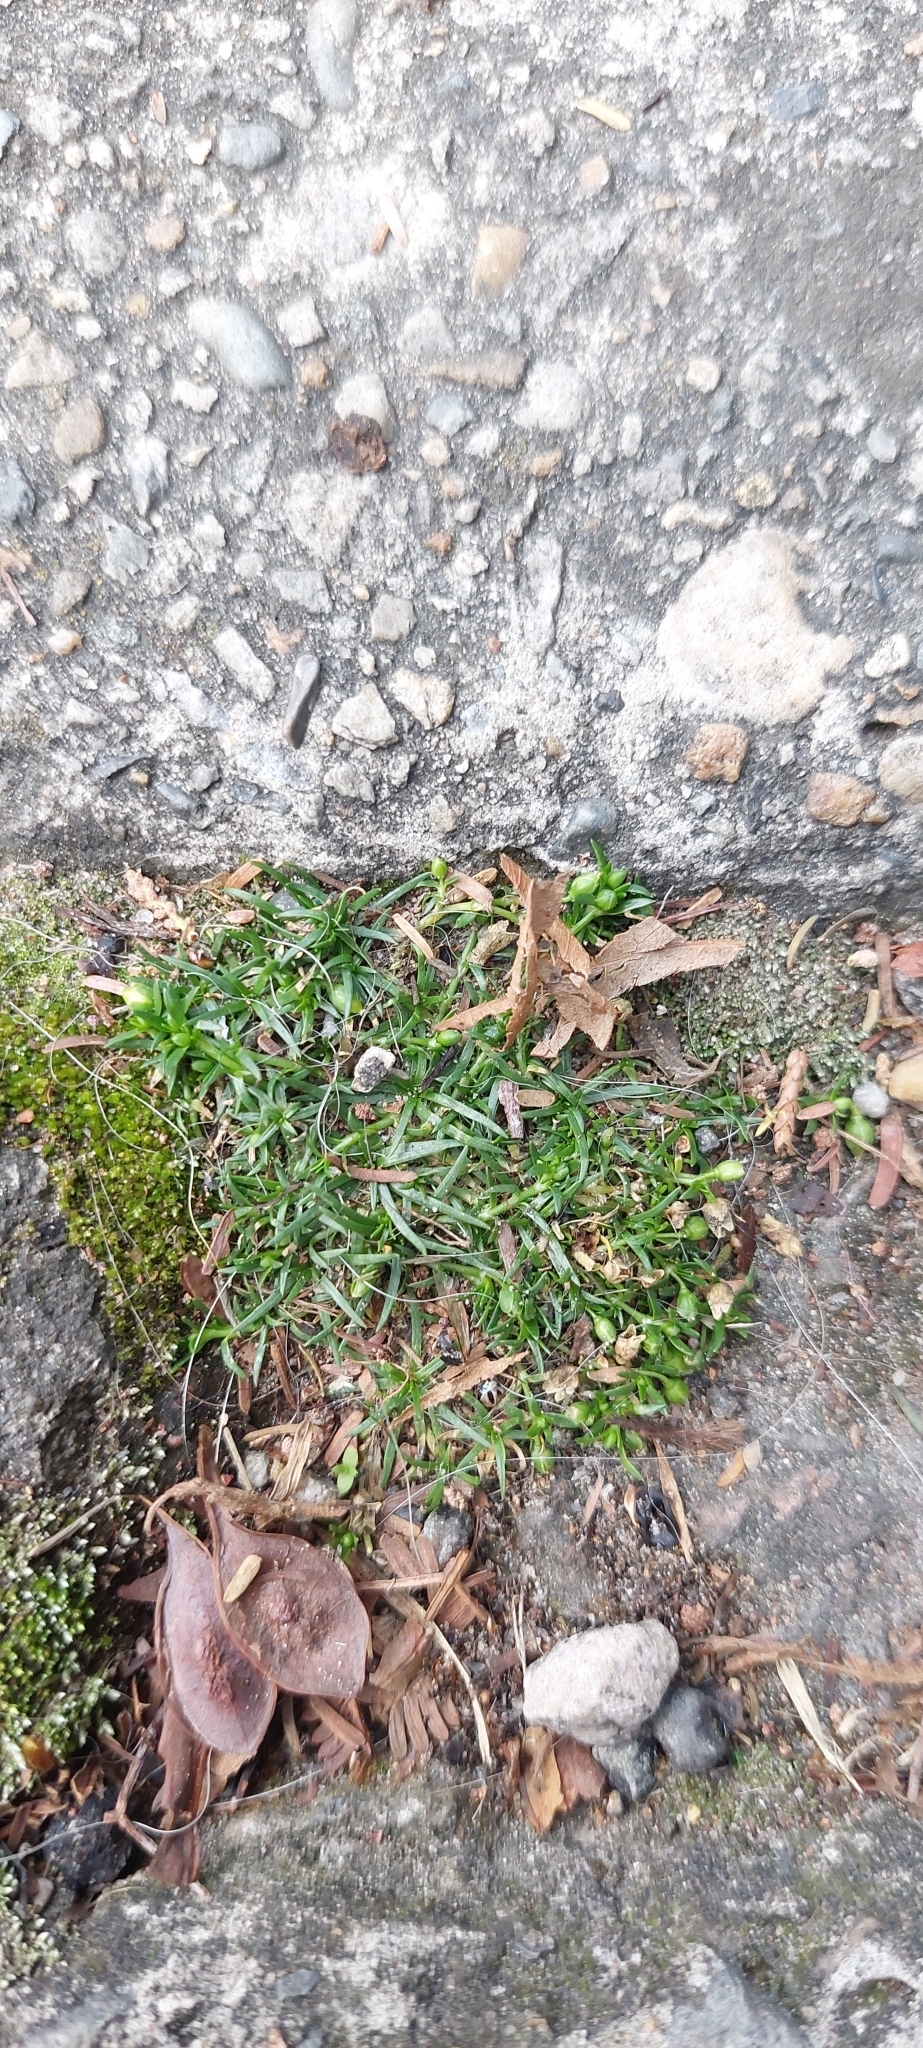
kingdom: Plantae
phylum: Tracheophyta
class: Magnoliopsida
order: Caryophyllales
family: Caryophyllaceae
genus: Sagina
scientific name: Sagina procumbens
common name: Procumbent pearlwort
